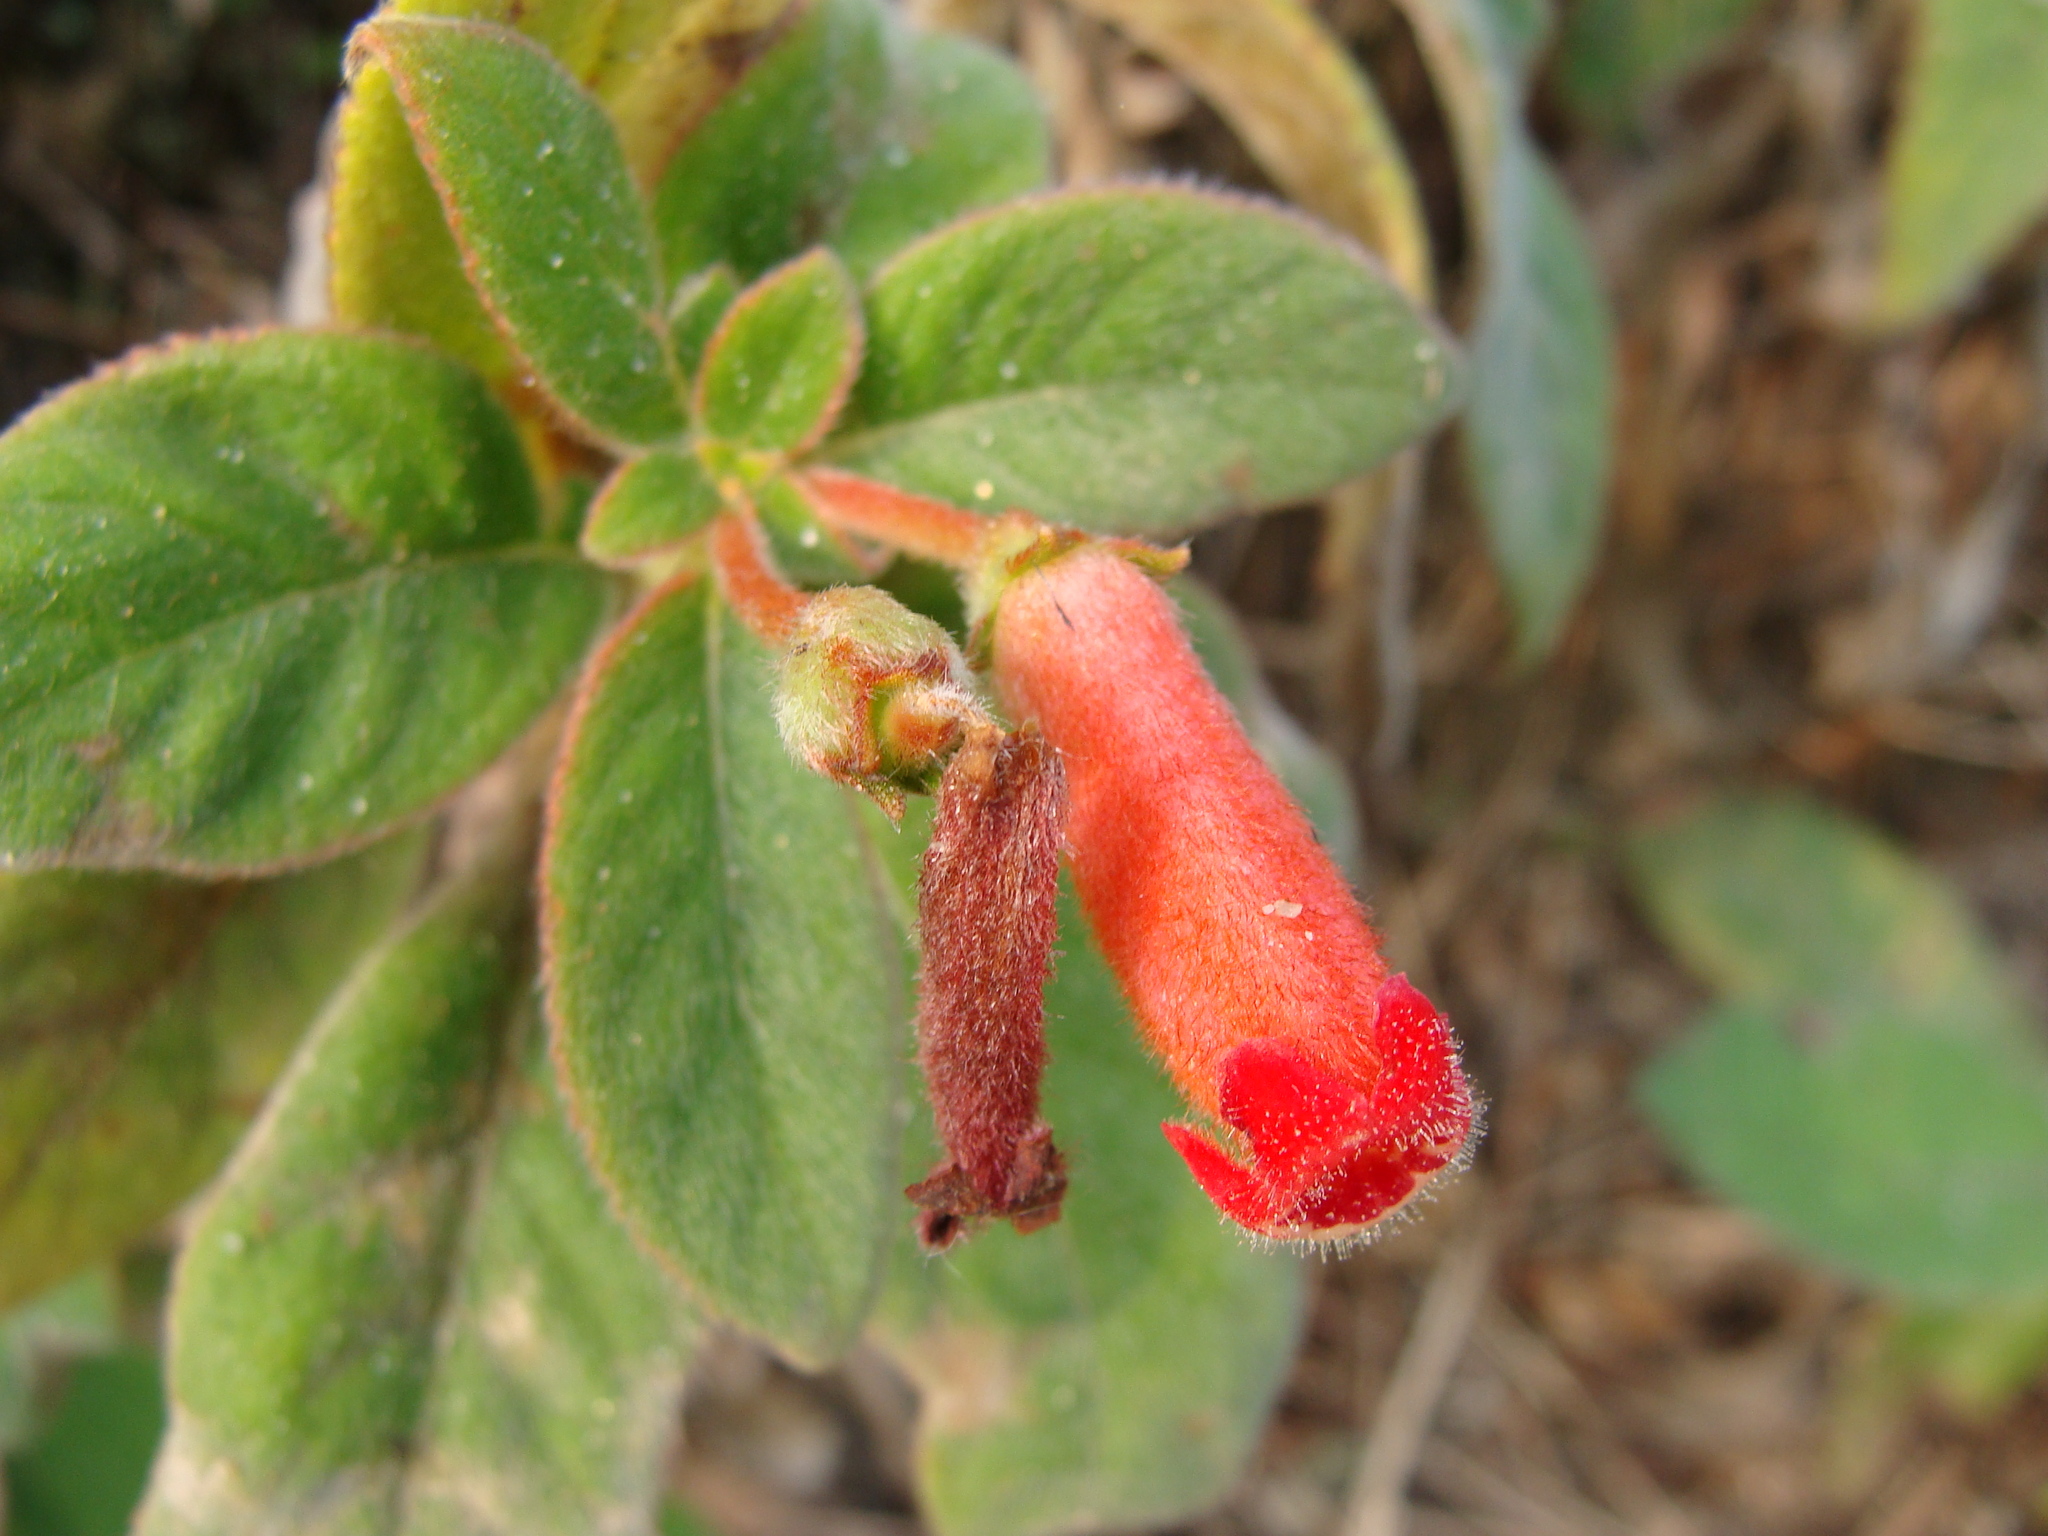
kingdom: Plantae
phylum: Tracheophyta
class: Magnoliopsida
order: Lamiales
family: Gesneriaceae
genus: Kohleria
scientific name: Kohleria spicata
